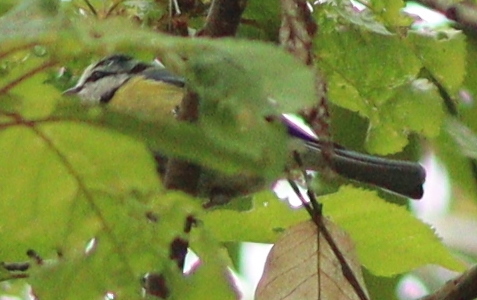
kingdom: Animalia
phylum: Chordata
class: Aves
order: Passeriformes
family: Paridae
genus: Cyanistes
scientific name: Cyanistes caeruleus
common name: Eurasian blue tit
